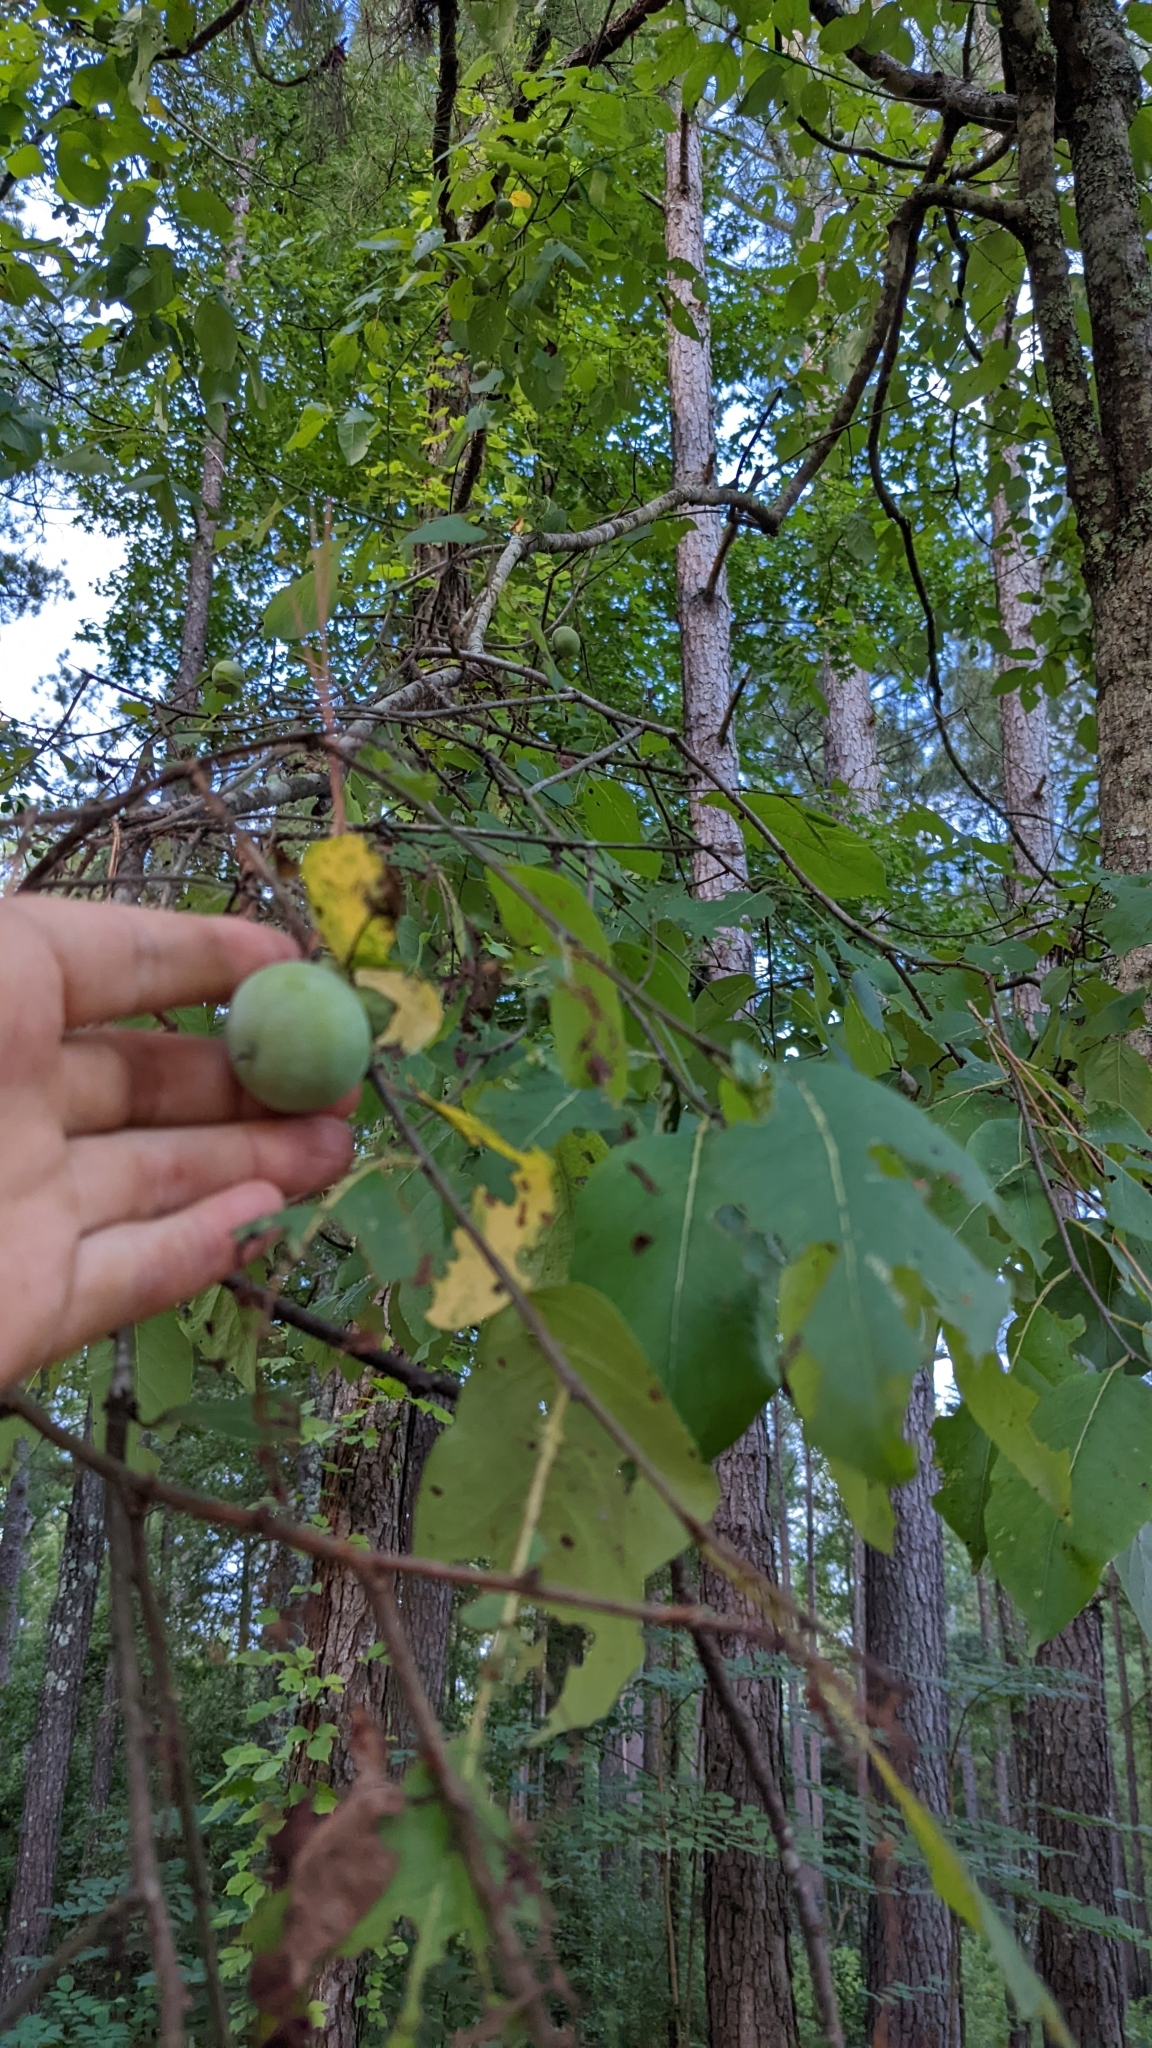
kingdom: Plantae
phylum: Tracheophyta
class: Magnoliopsida
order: Ericales
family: Ebenaceae
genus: Diospyros
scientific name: Diospyros virginiana
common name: Persimmon
